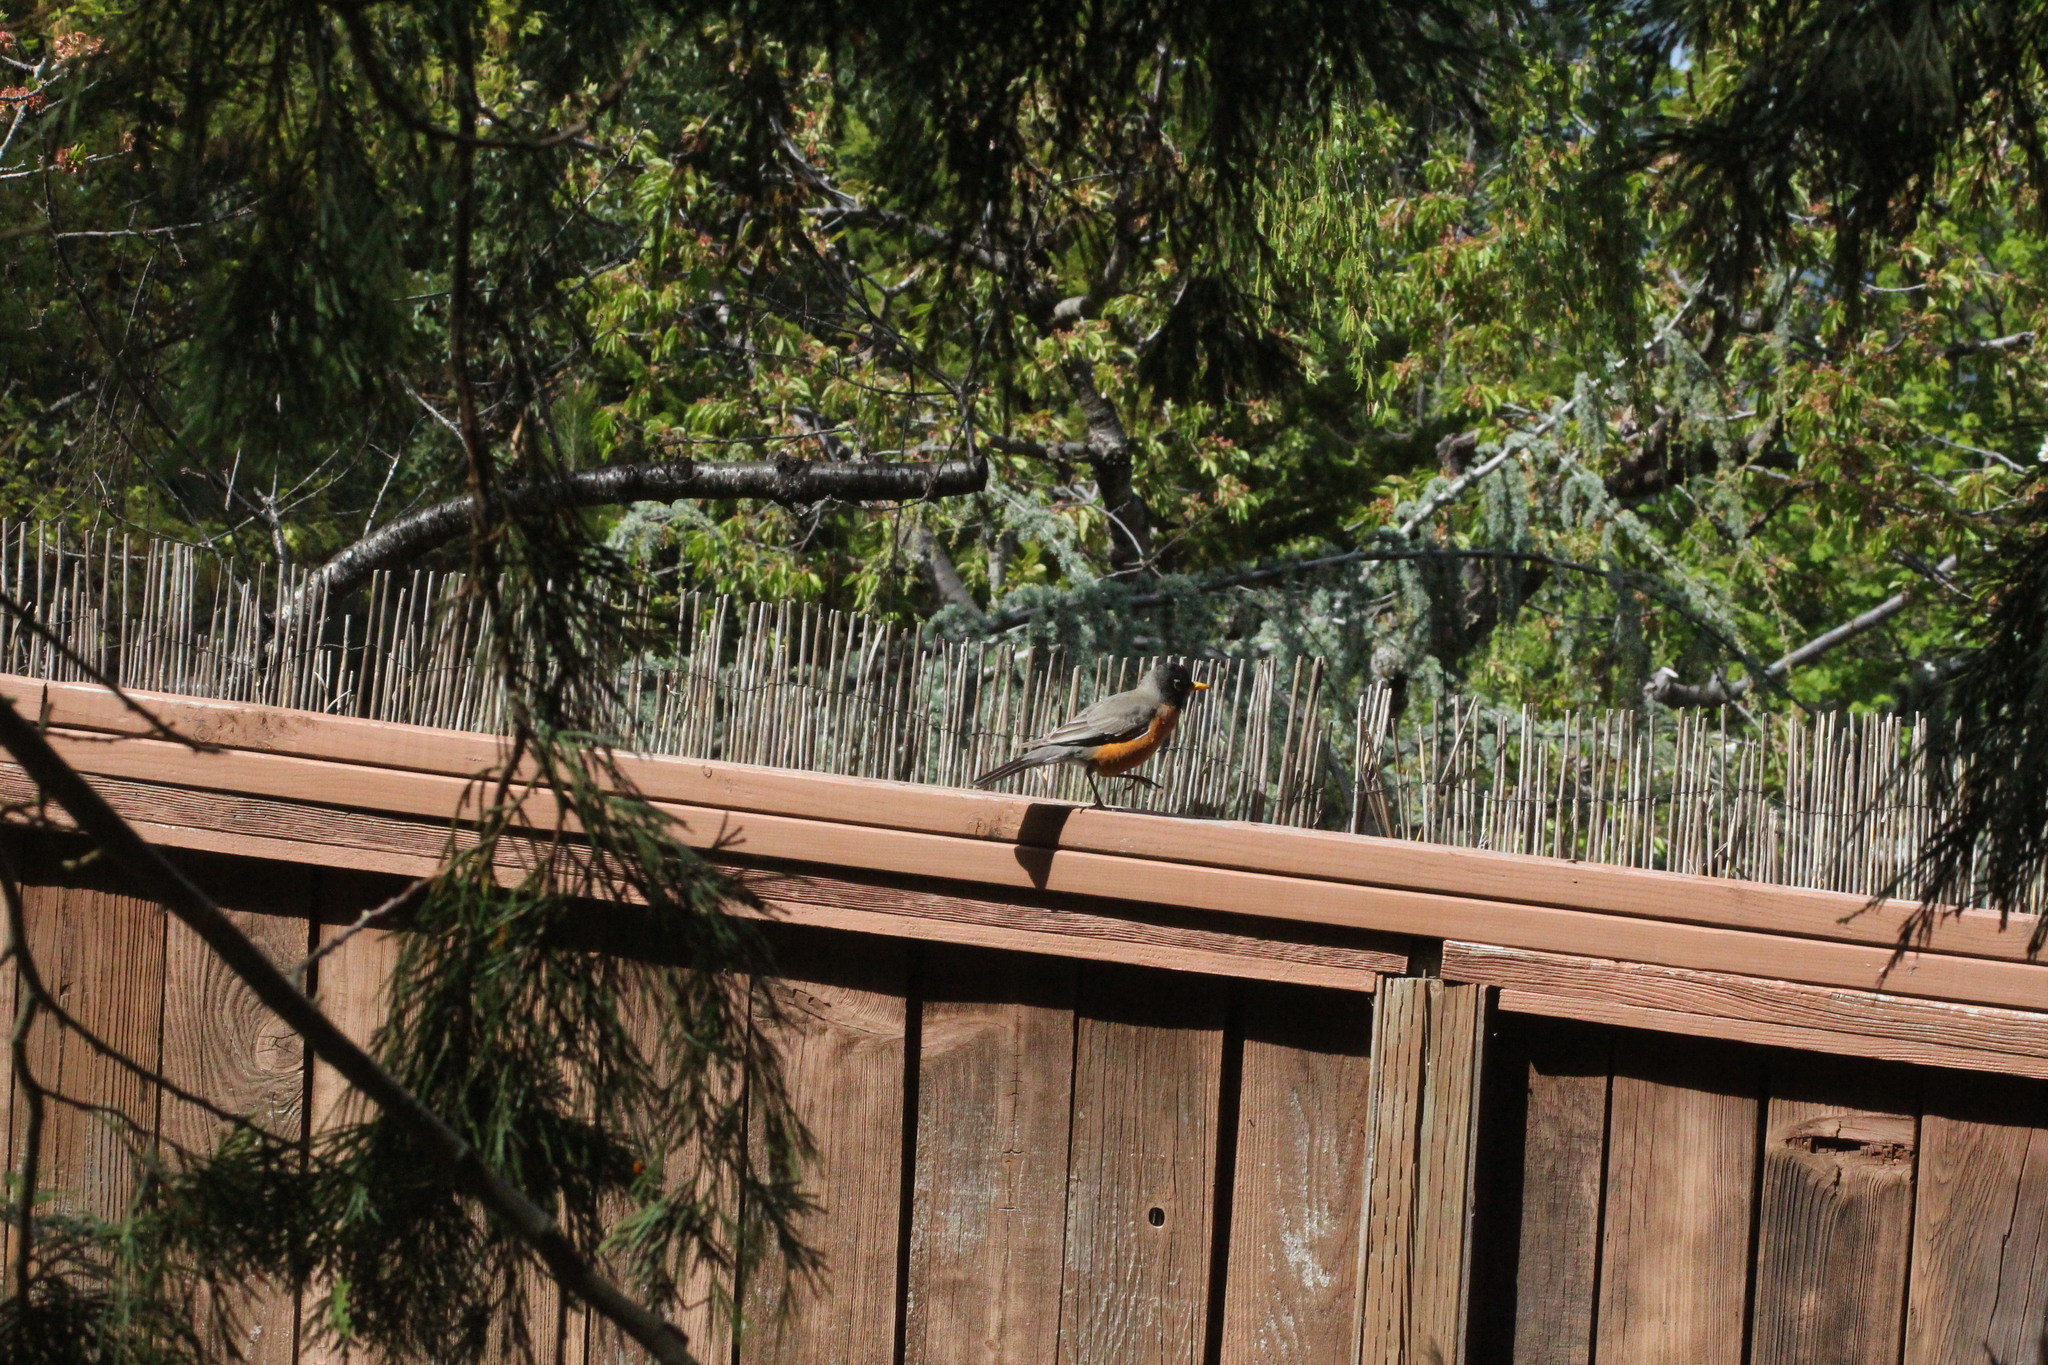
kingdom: Animalia
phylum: Chordata
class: Aves
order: Passeriformes
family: Turdidae
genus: Turdus
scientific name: Turdus migratorius
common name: American robin
